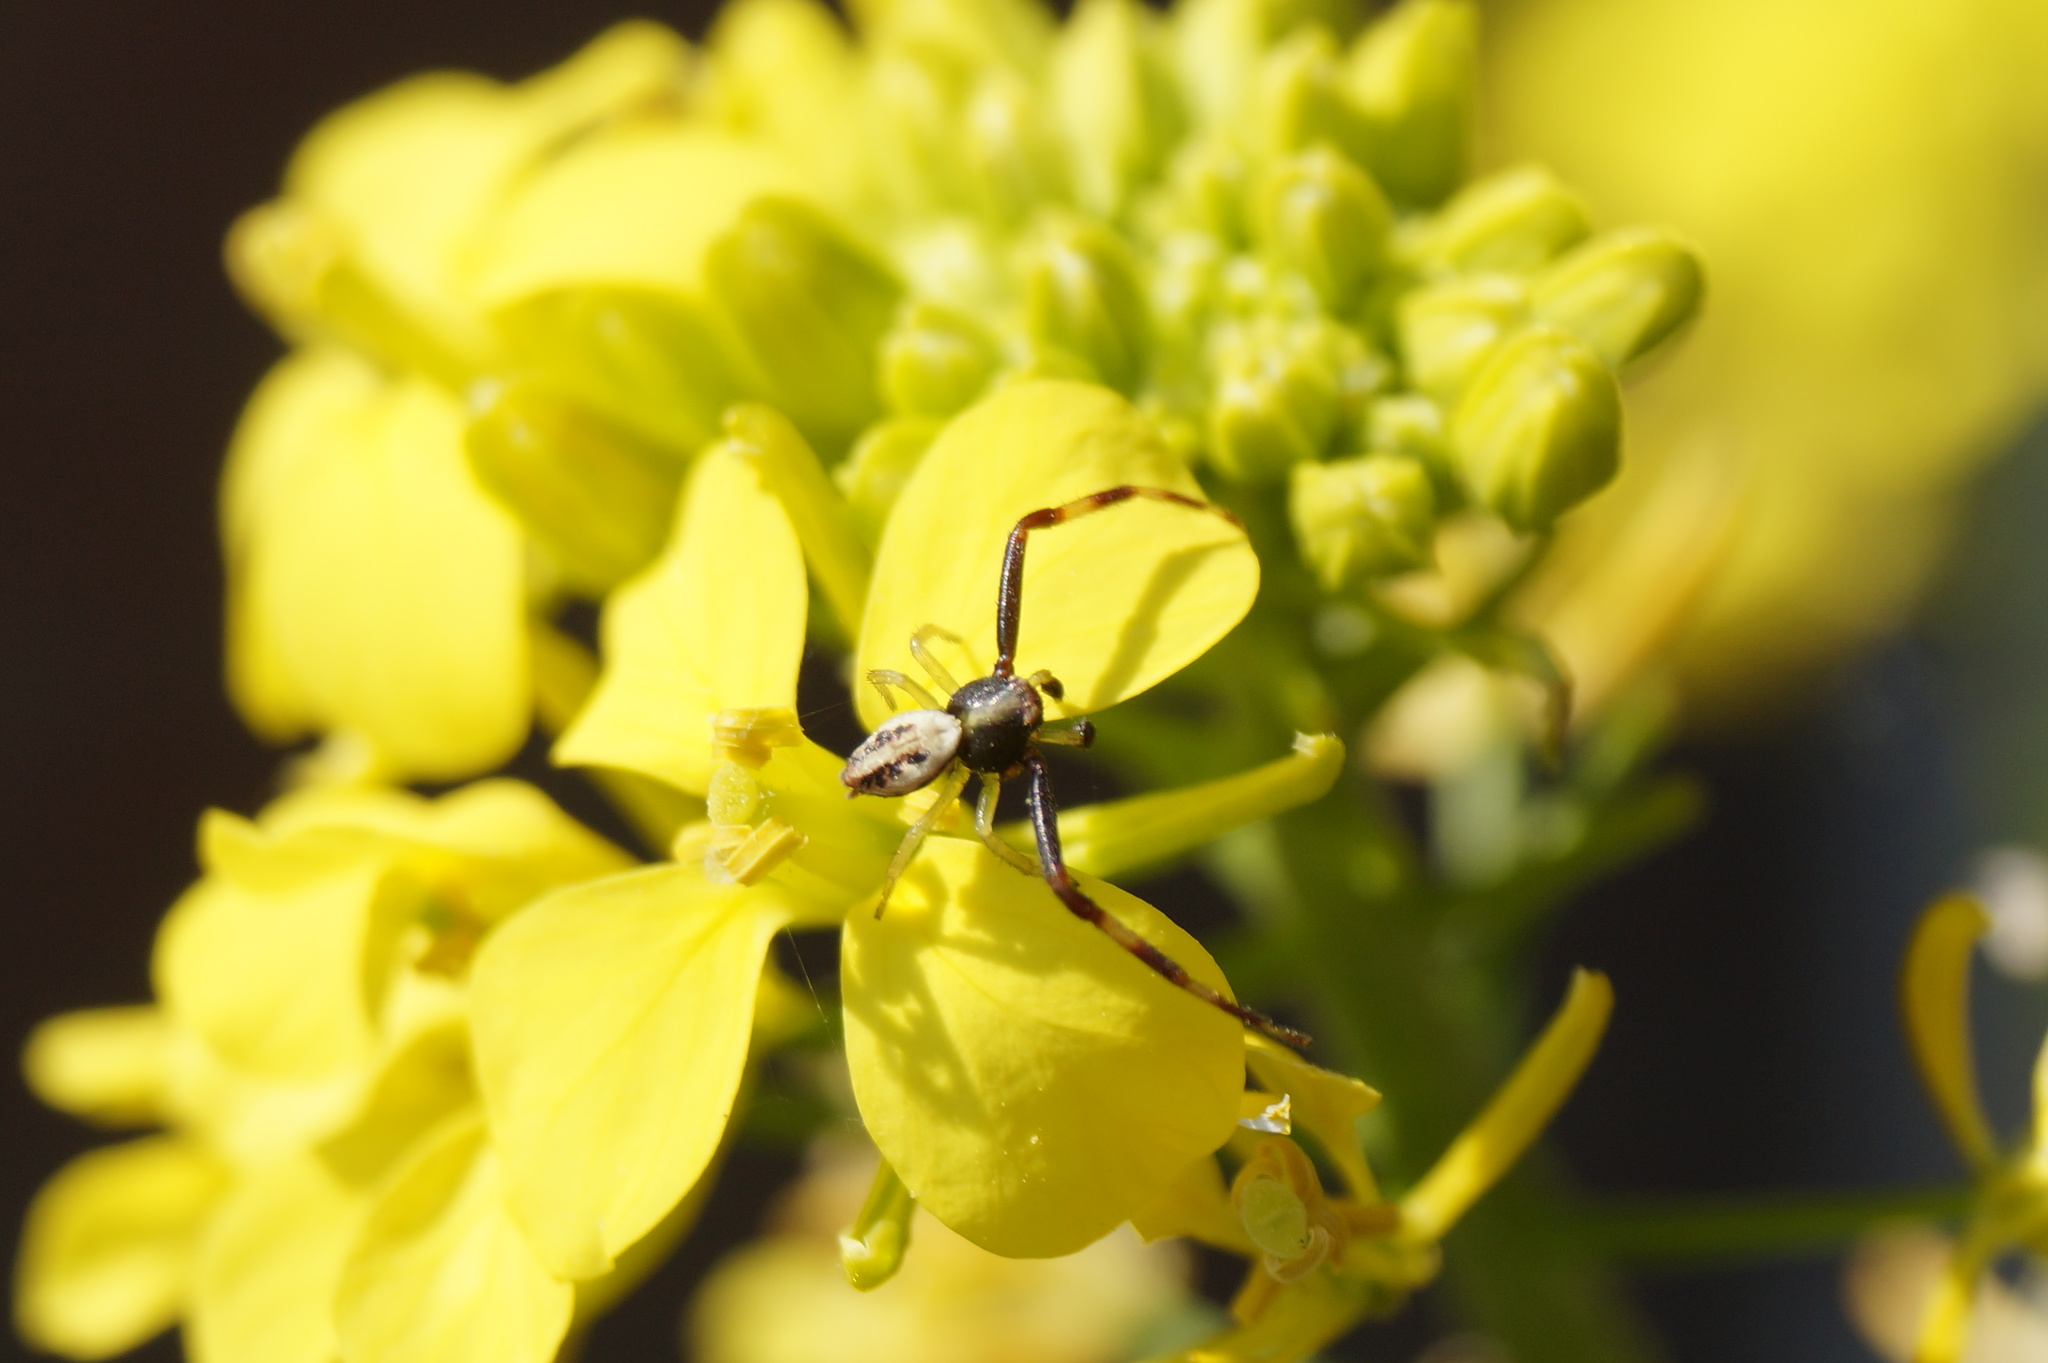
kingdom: Animalia
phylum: Arthropoda
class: Arachnida
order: Araneae
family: Thomisidae
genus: Misumena
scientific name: Misumena vatia
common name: Goldenrod crab spider
